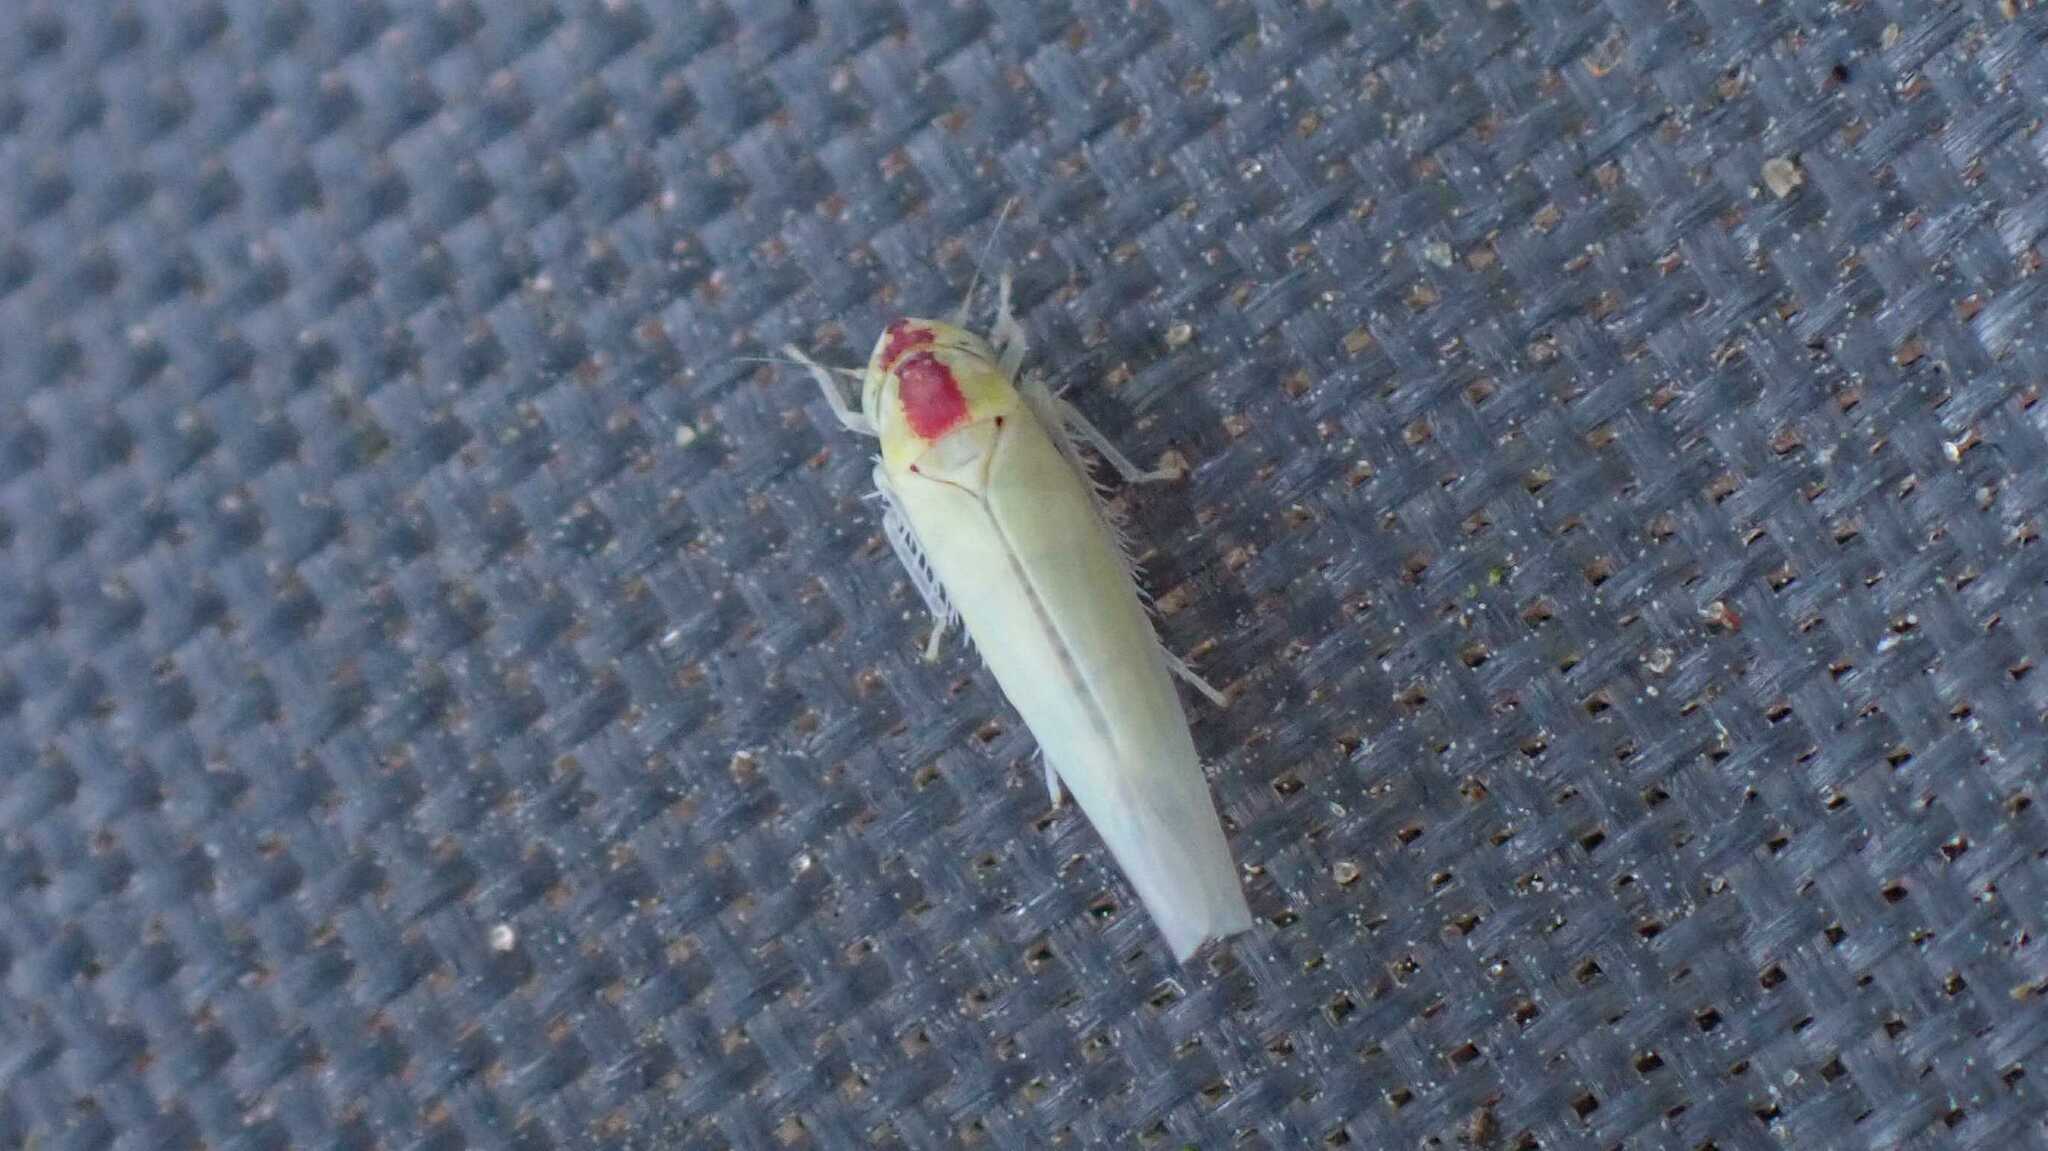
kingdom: Animalia
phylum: Arthropoda
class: Insecta
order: Hemiptera
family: Cicadellidae
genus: Zygina
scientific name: Zygina nivea
